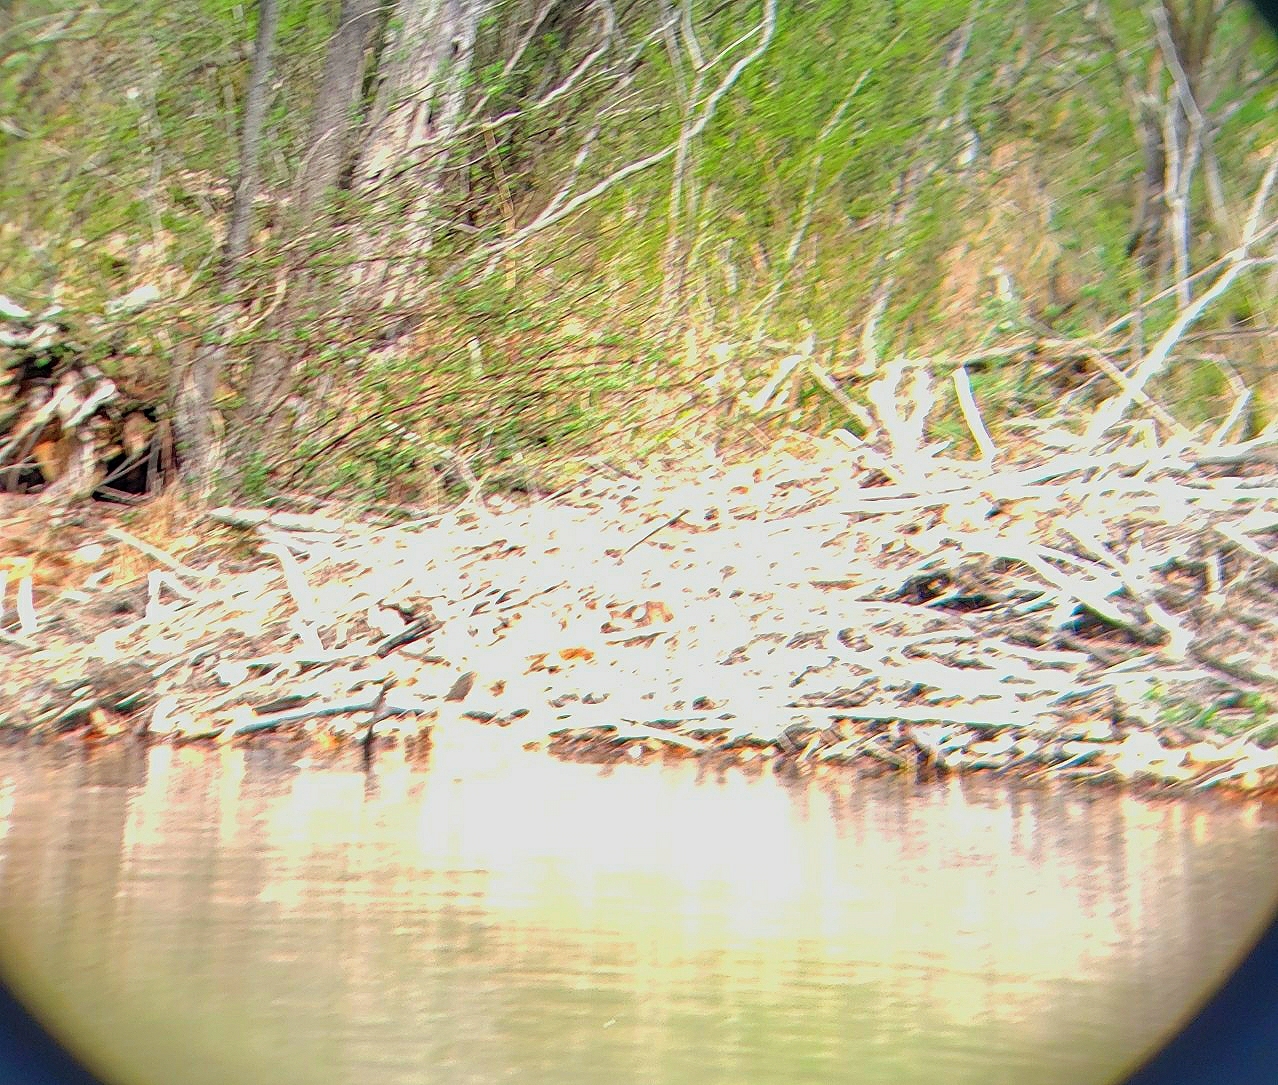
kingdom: Animalia
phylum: Chordata
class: Mammalia
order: Rodentia
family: Castoridae
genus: Castor
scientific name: Castor canadensis
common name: American beaver
